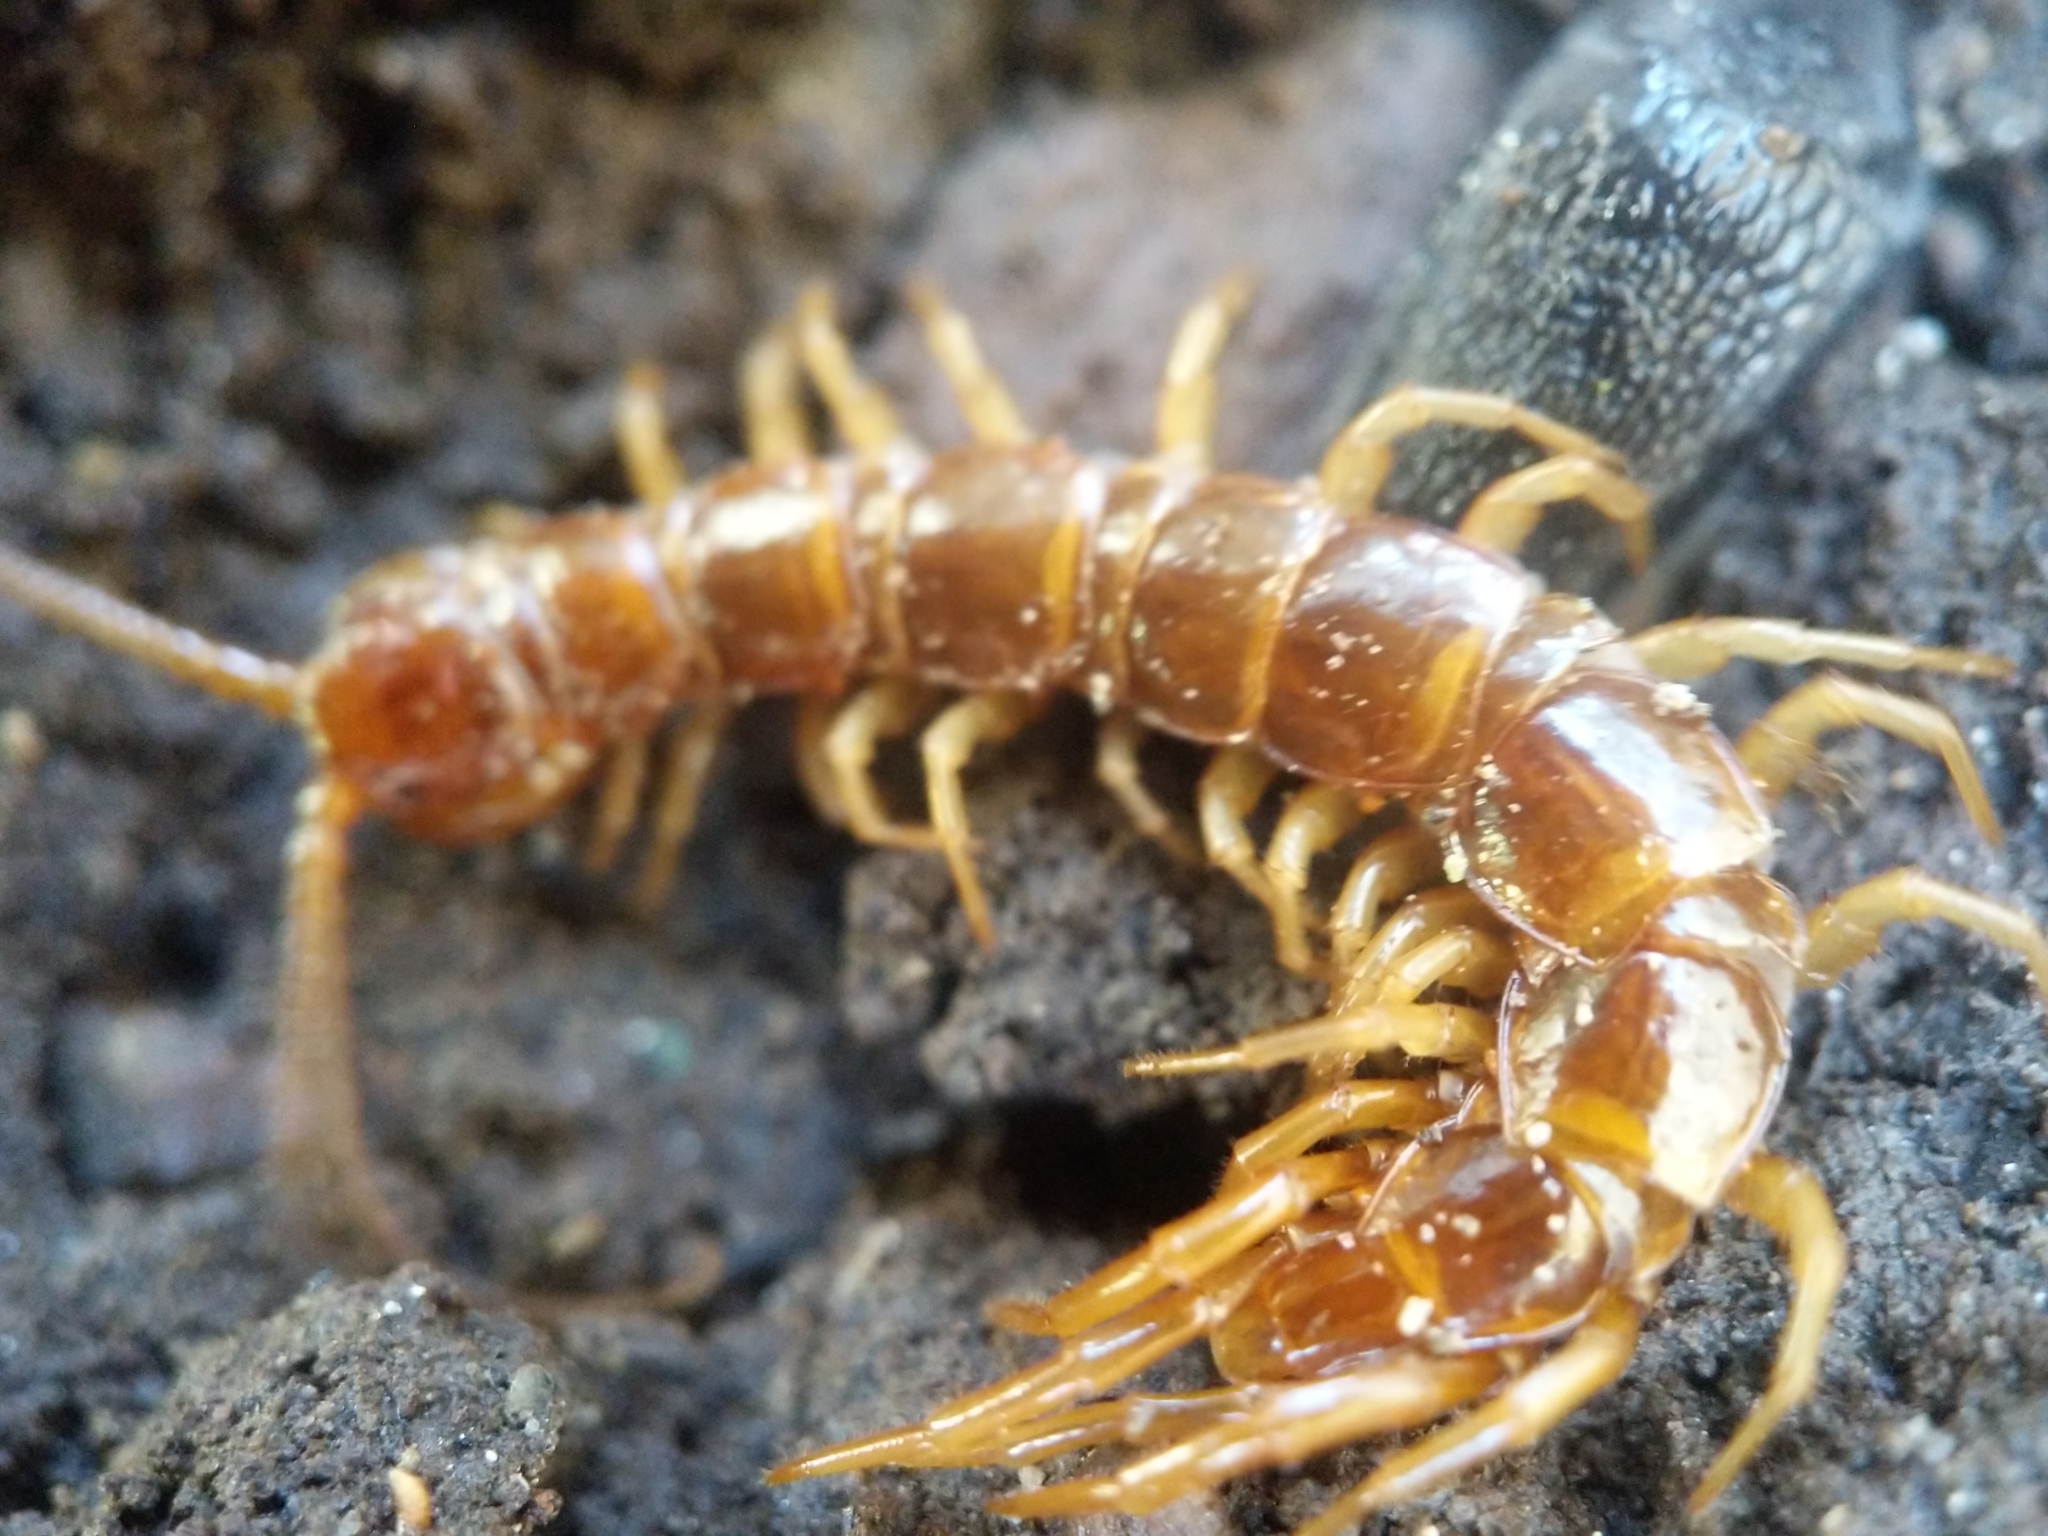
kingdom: Animalia
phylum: Arthropoda
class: Chilopoda
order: Lithobiomorpha
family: Lithobiidae
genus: Lithobius
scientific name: Lithobius forficatus
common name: Centipede
